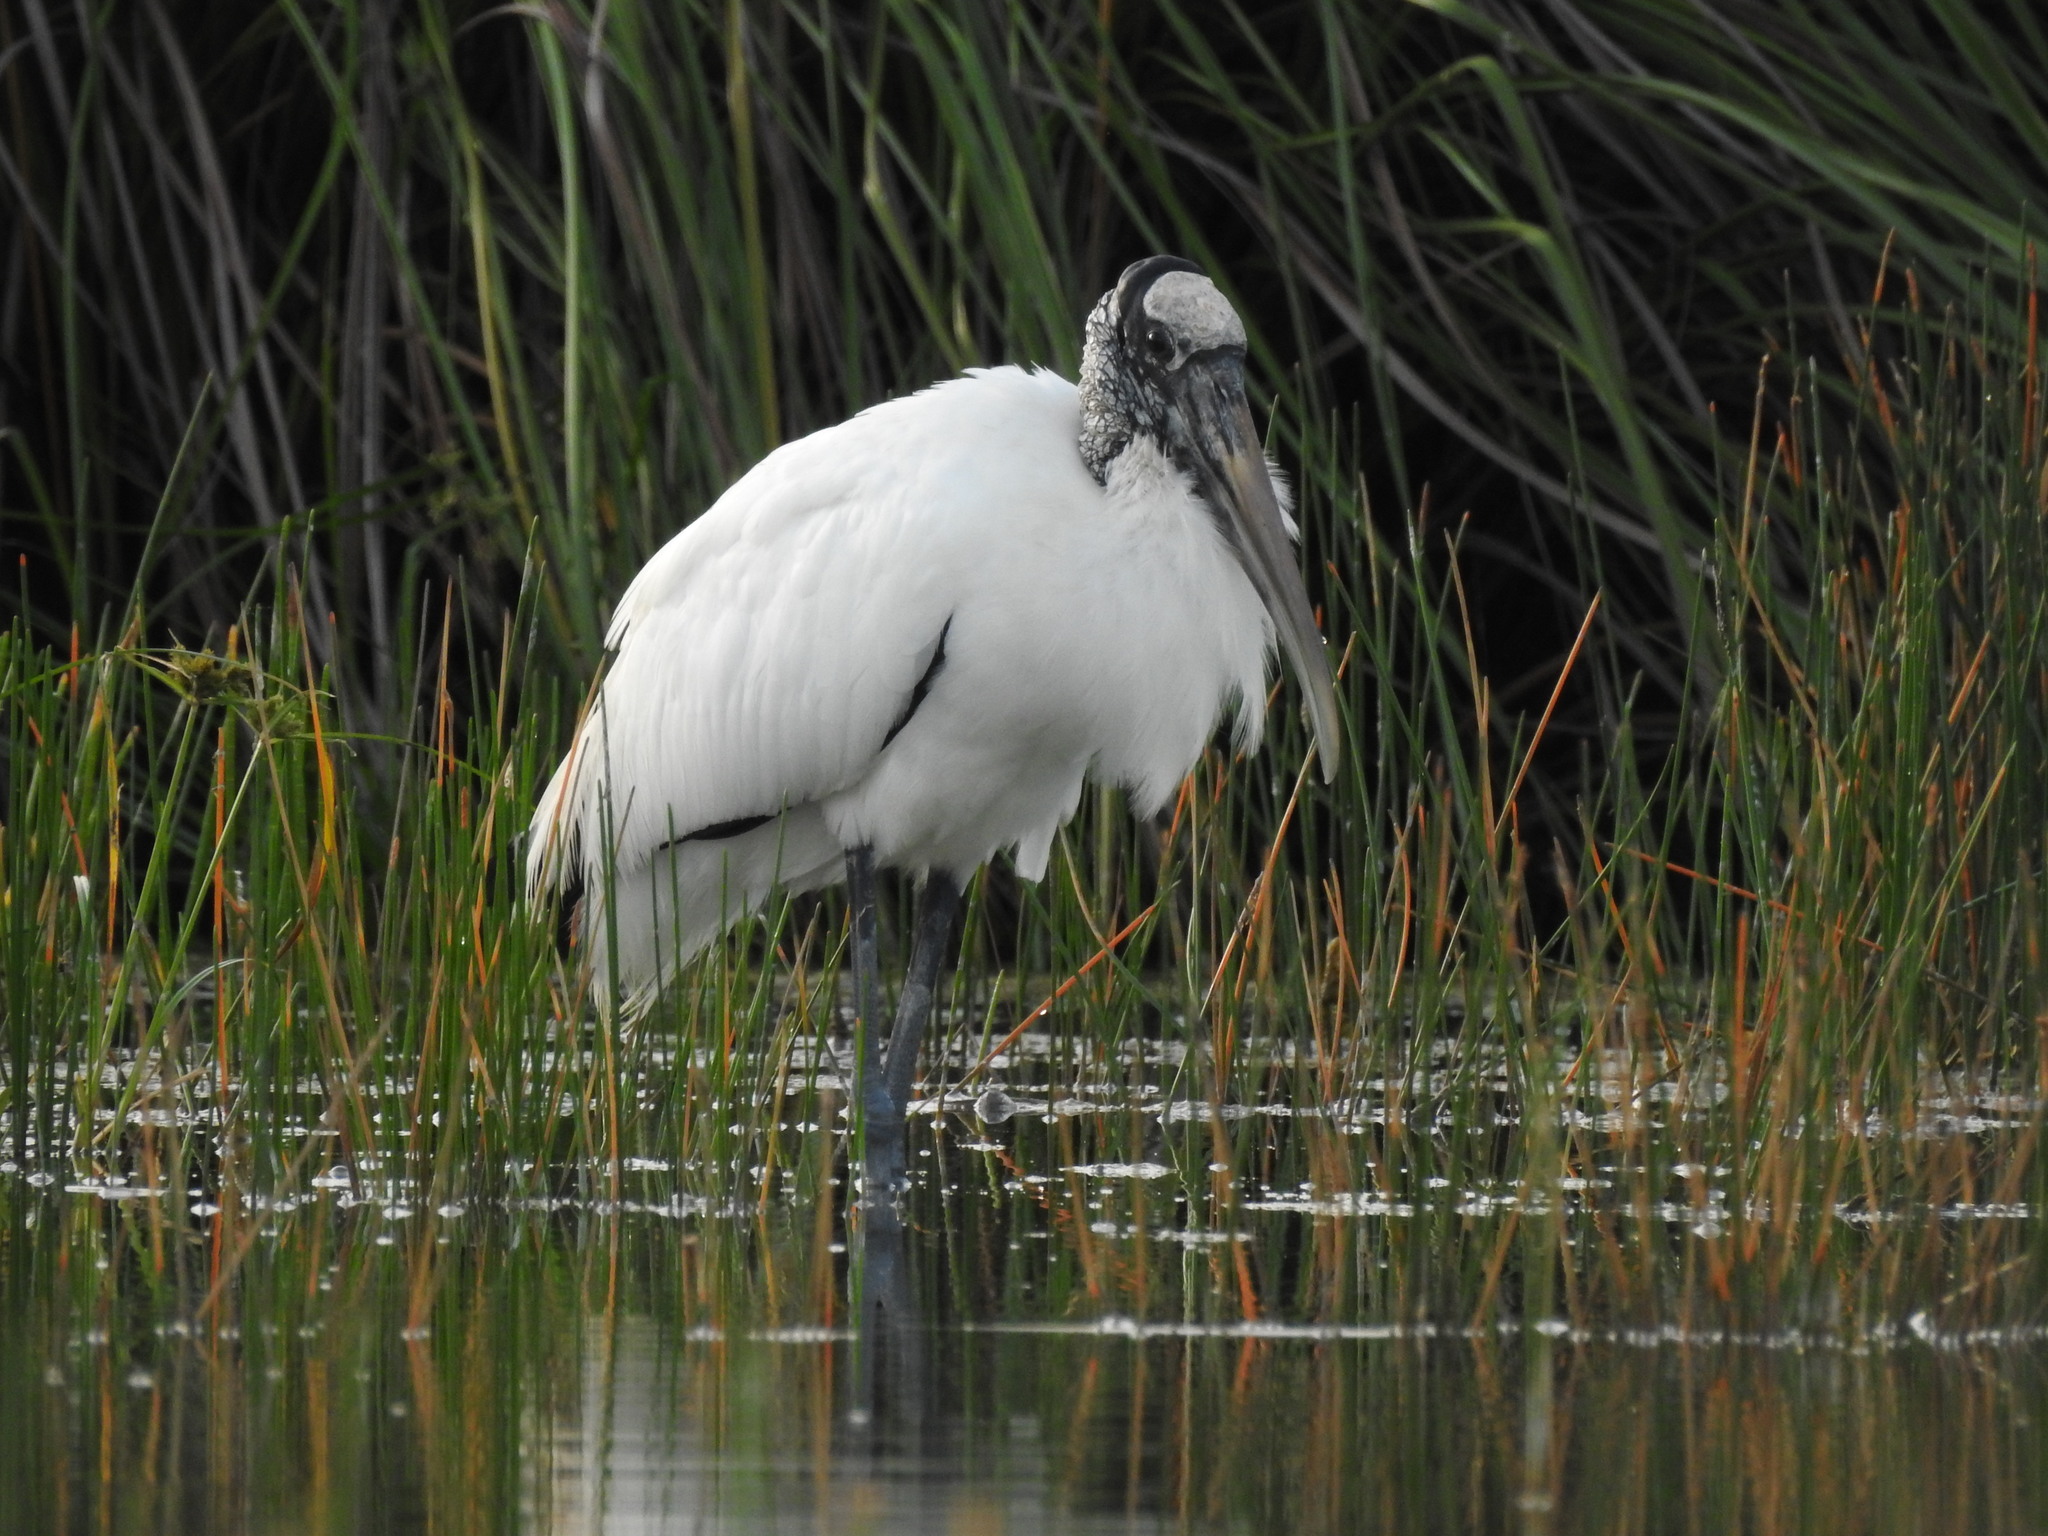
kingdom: Animalia
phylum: Chordata
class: Aves
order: Ciconiiformes
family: Ciconiidae
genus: Mycteria
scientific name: Mycteria americana
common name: Wood stork
